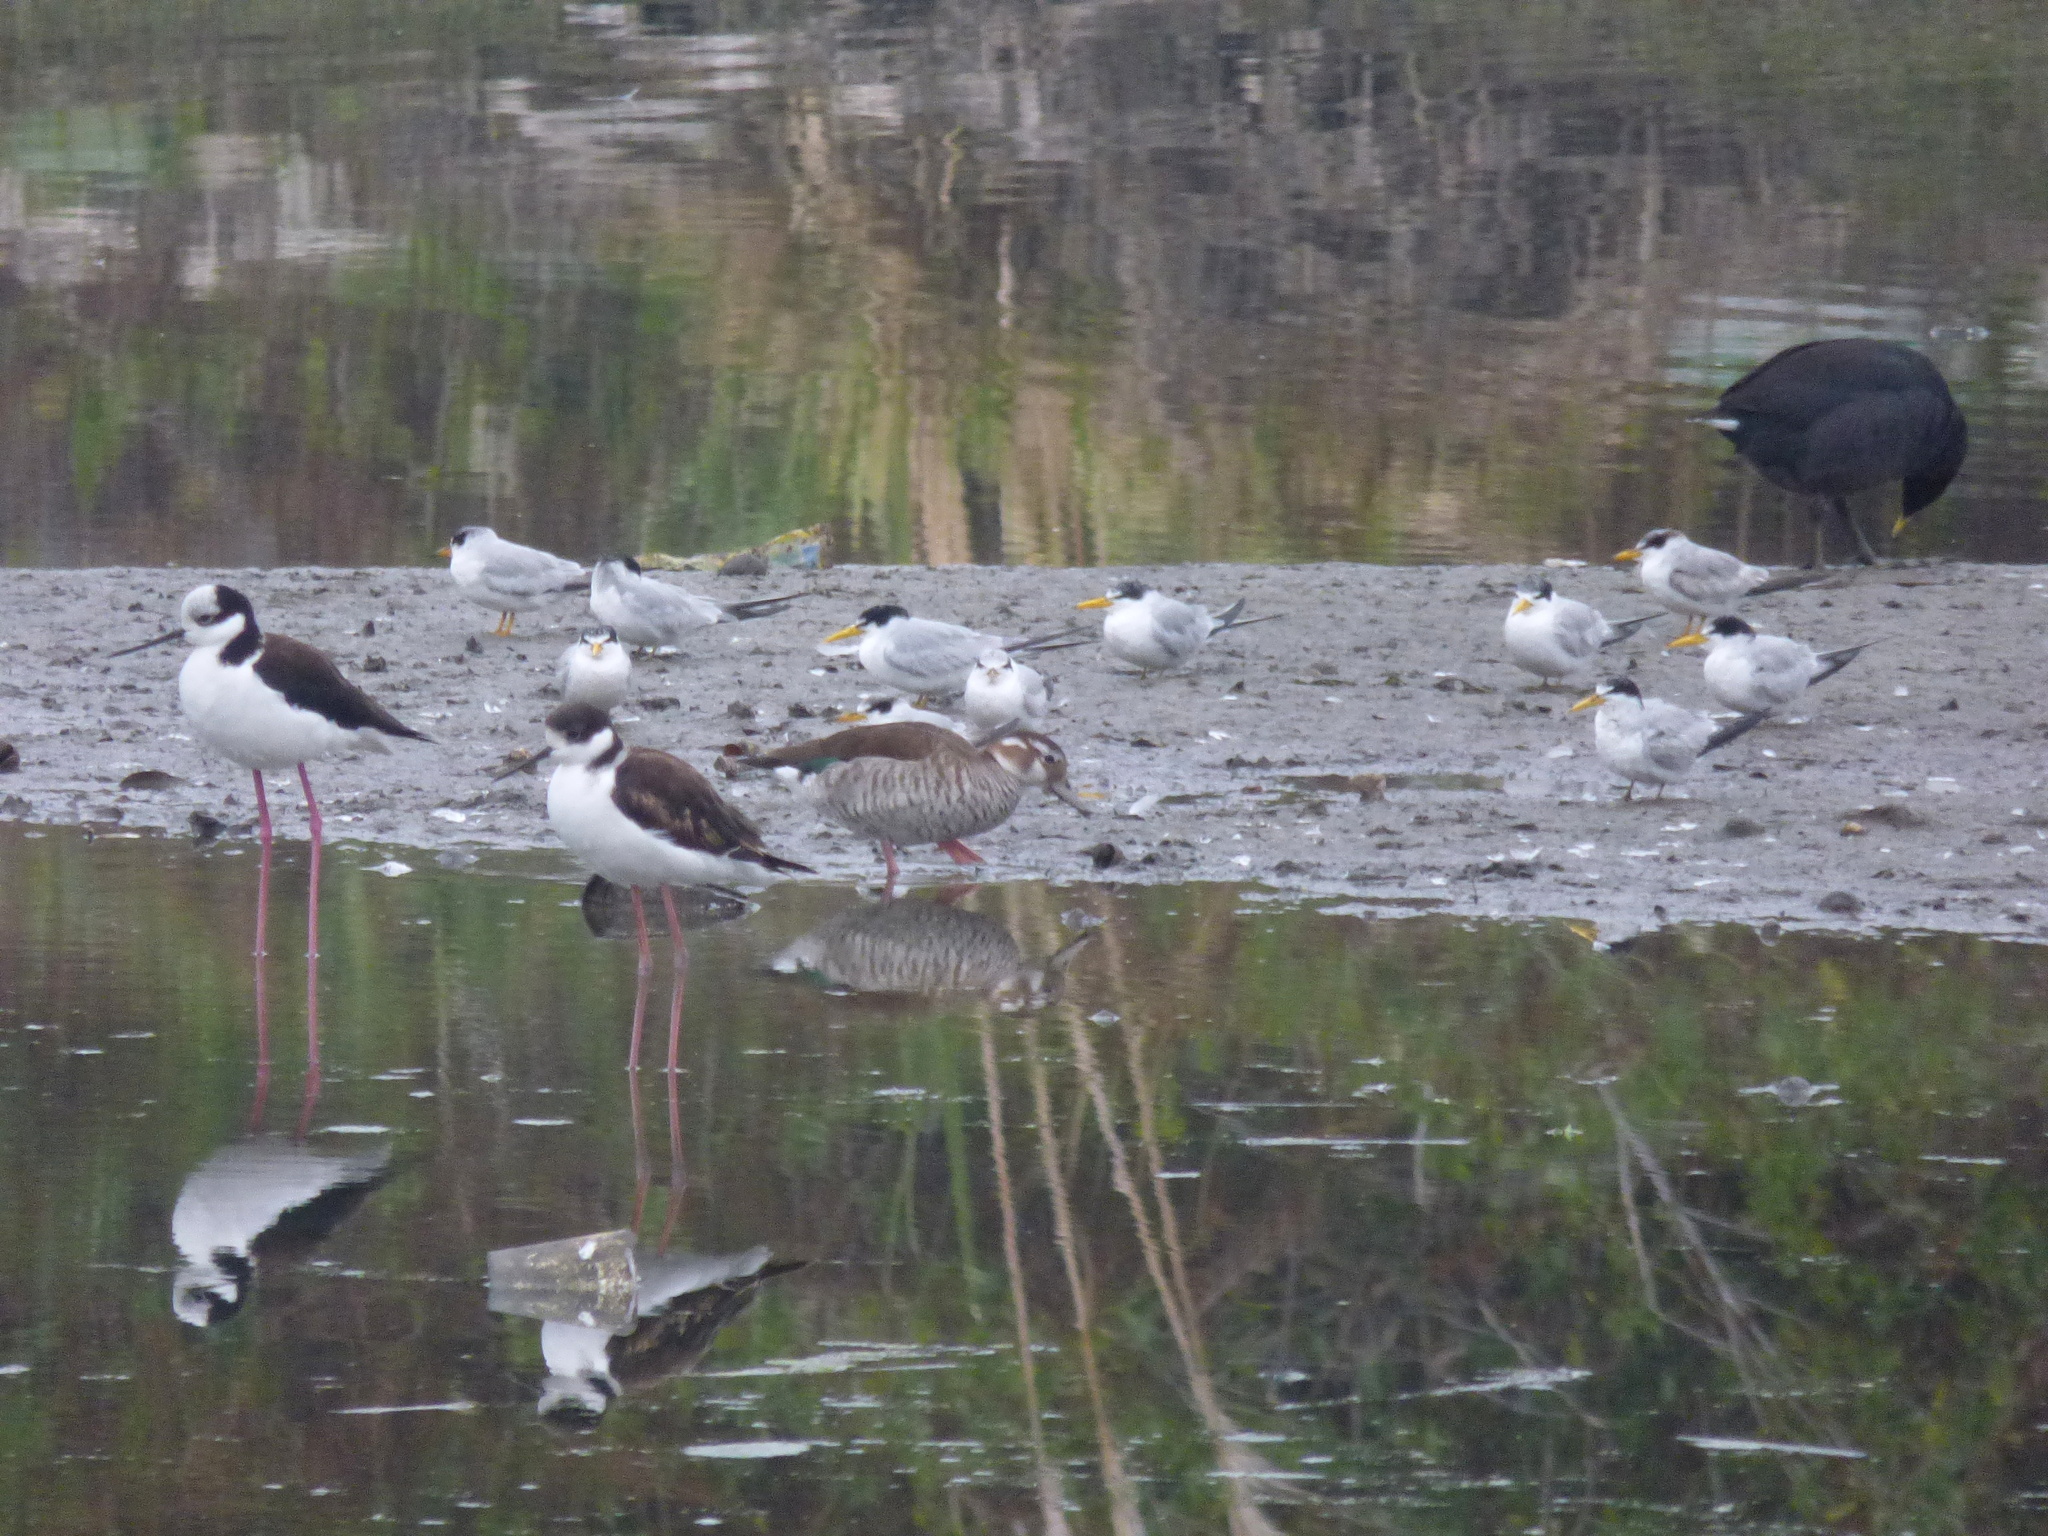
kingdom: Animalia
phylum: Chordata
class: Aves
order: Charadriiformes
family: Recurvirostridae
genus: Himantopus
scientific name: Himantopus mexicanus
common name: Black-necked stilt
